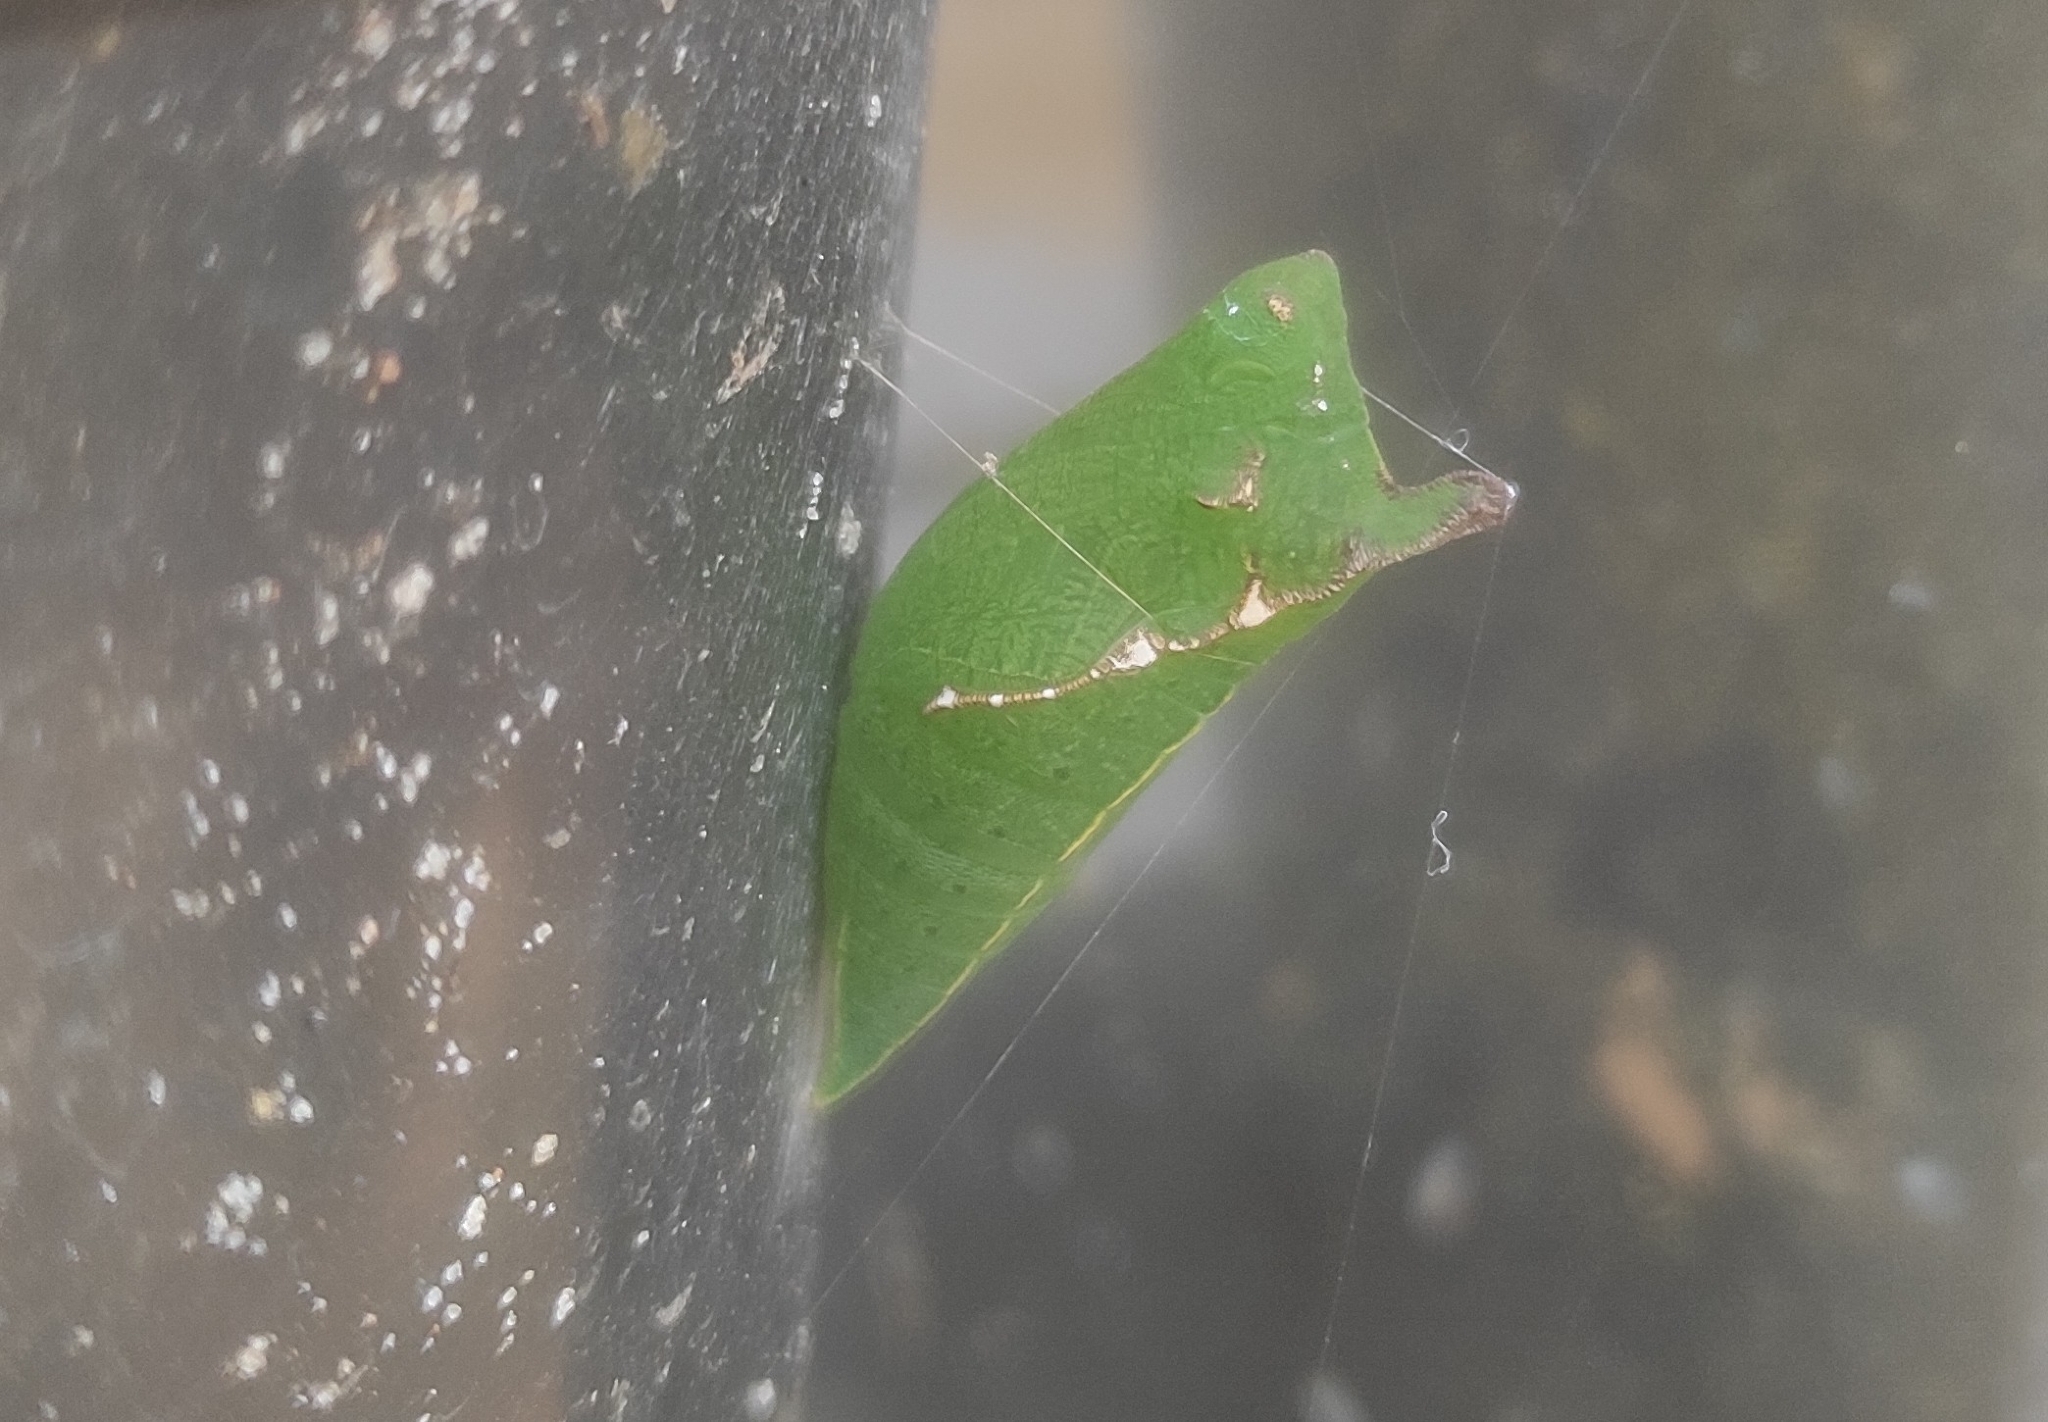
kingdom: Animalia
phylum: Arthropoda
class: Insecta
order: Lepidoptera
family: Papilionidae
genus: Graphium
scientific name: Graphium agamemnon
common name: Tailed jay
